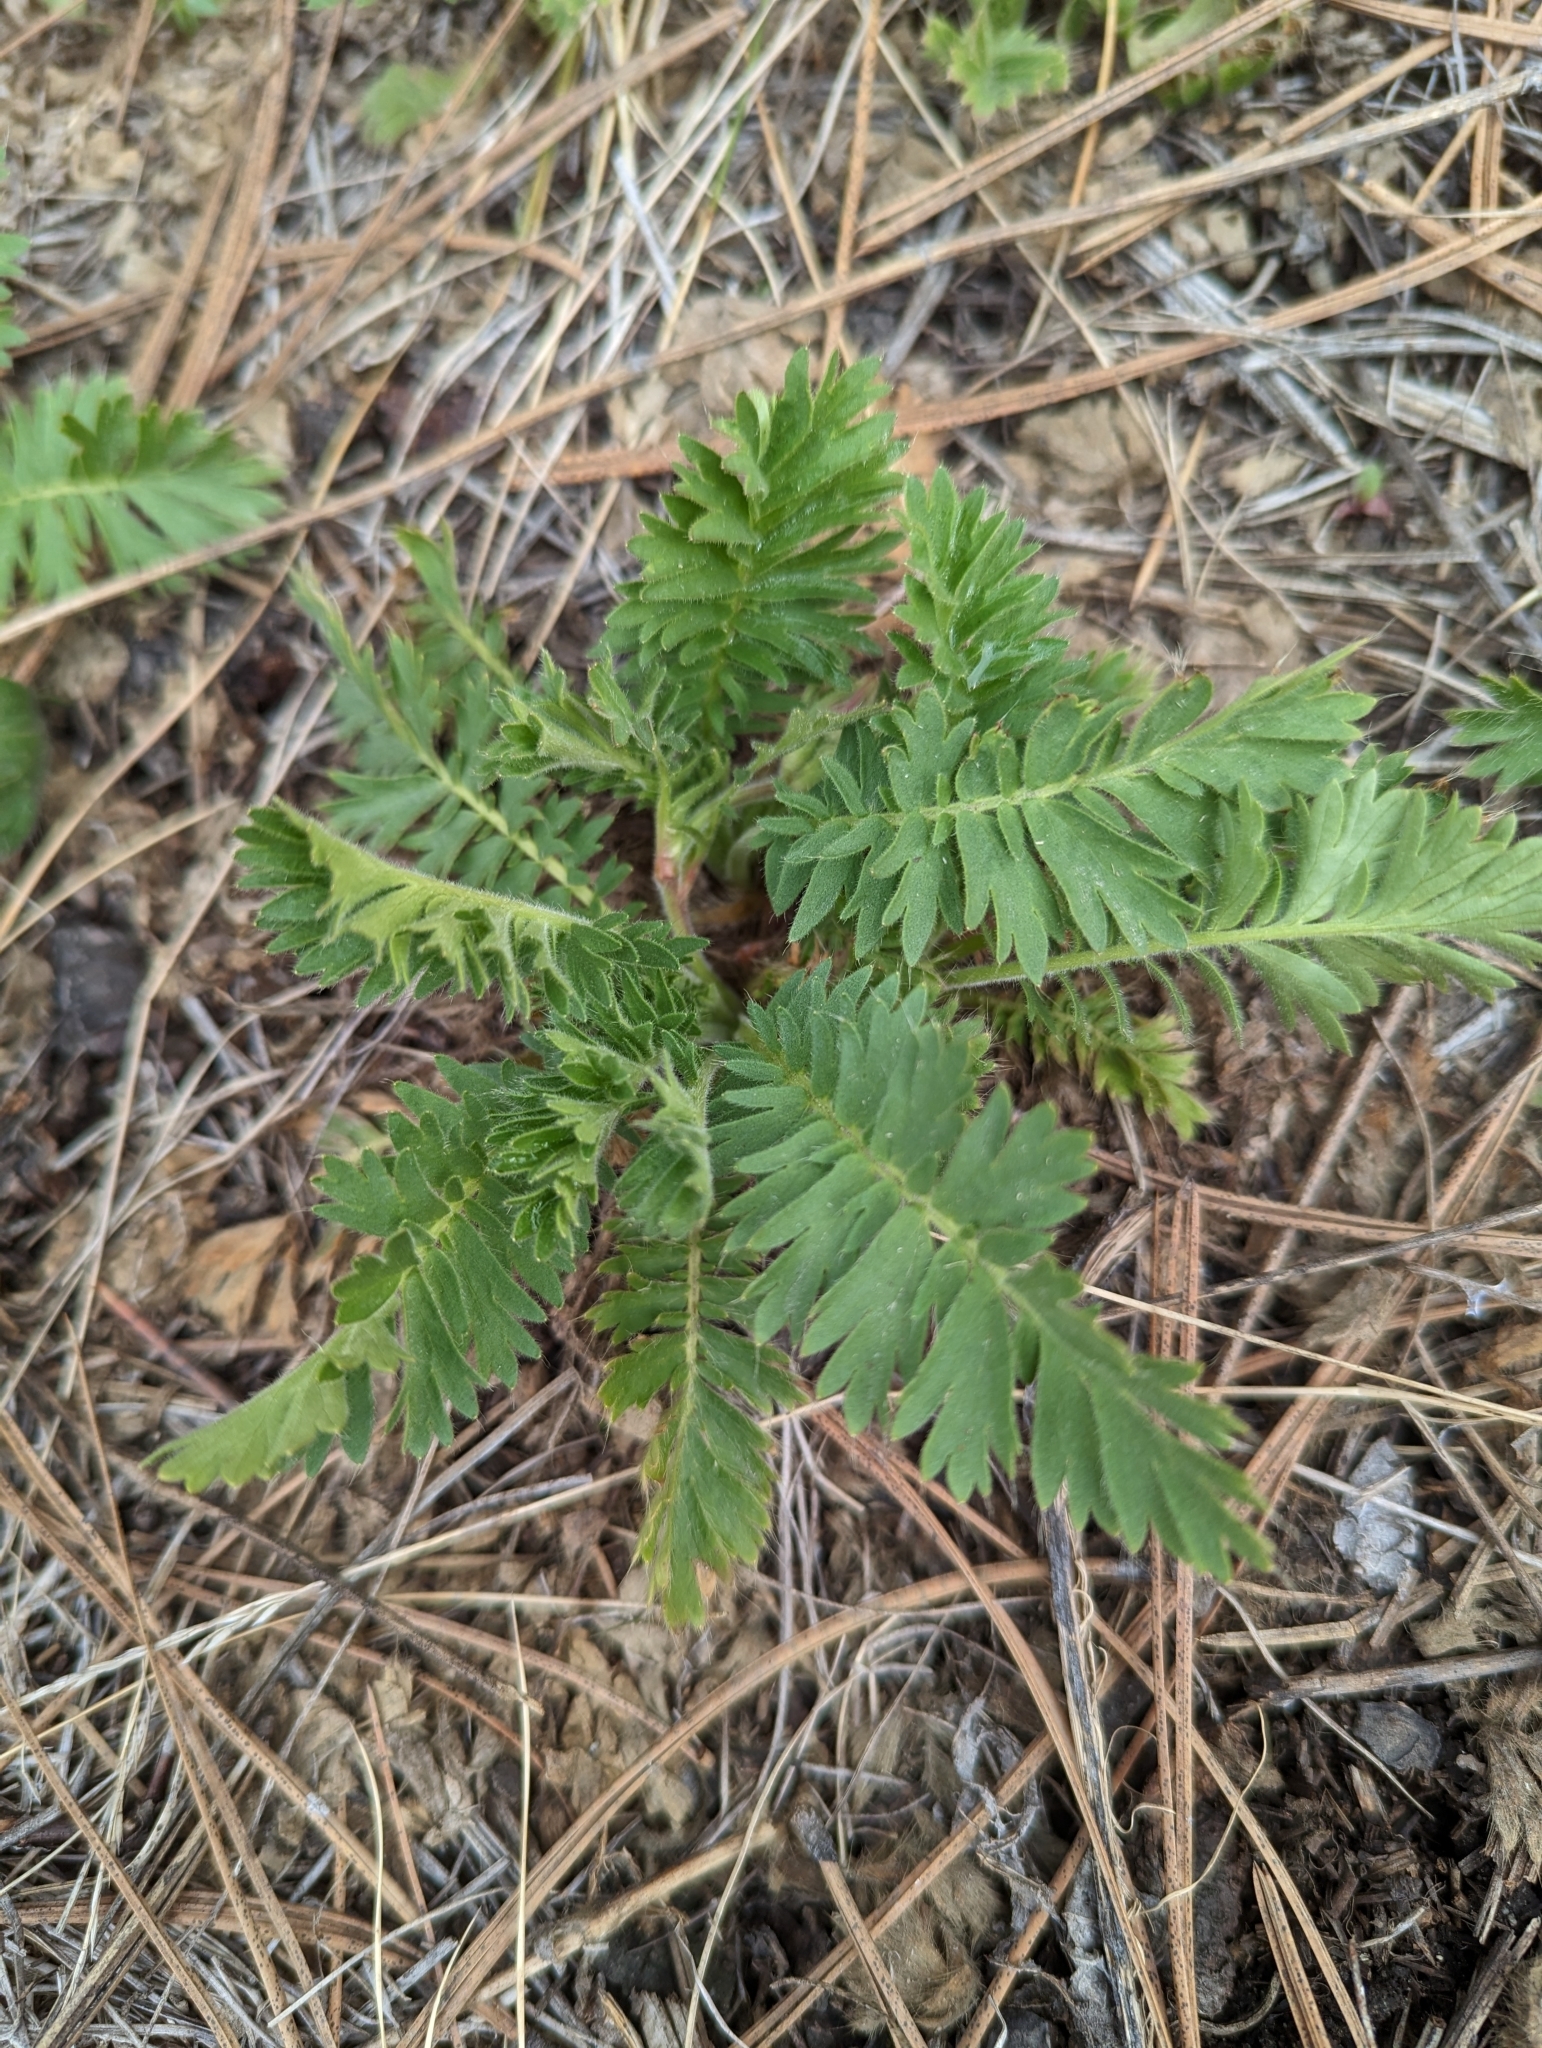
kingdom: Plantae
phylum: Tracheophyta
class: Magnoliopsida
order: Rosales
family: Rosaceae
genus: Geum
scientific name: Geum triflorum
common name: Old man's whiskers
